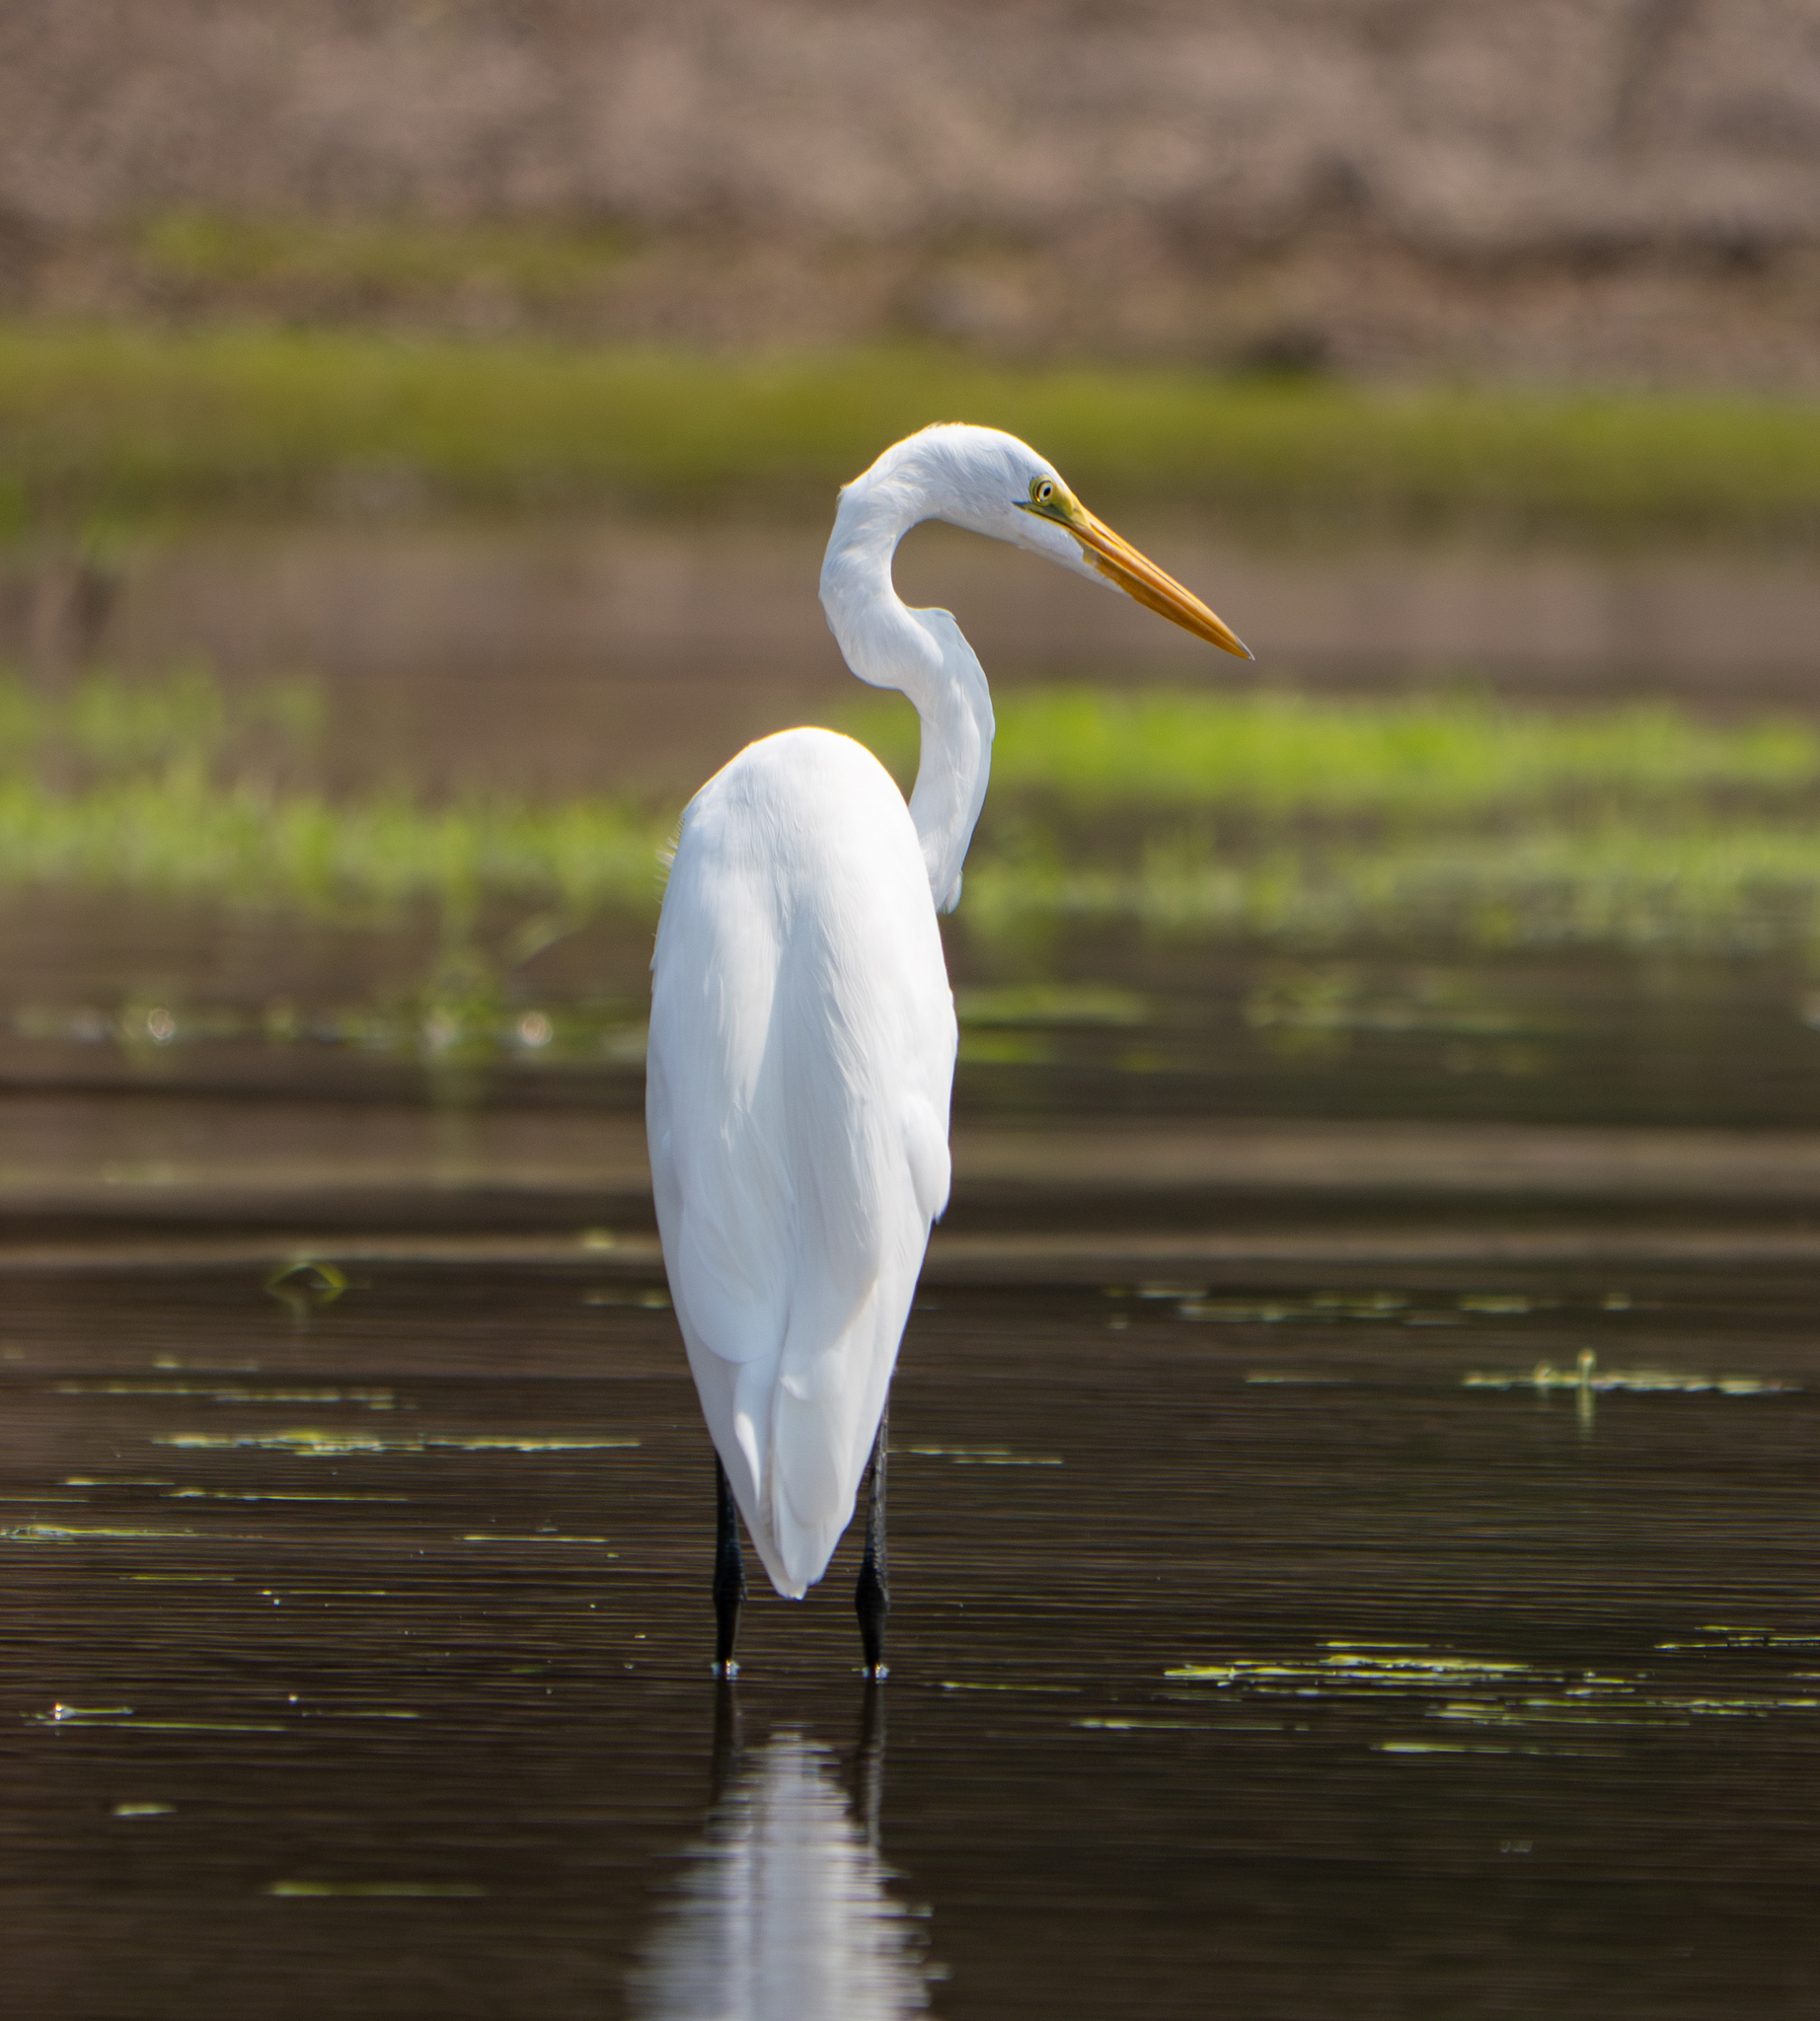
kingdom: Animalia
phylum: Chordata
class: Aves
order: Pelecaniformes
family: Ardeidae
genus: Ardea
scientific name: Ardea alba
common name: Great egret
